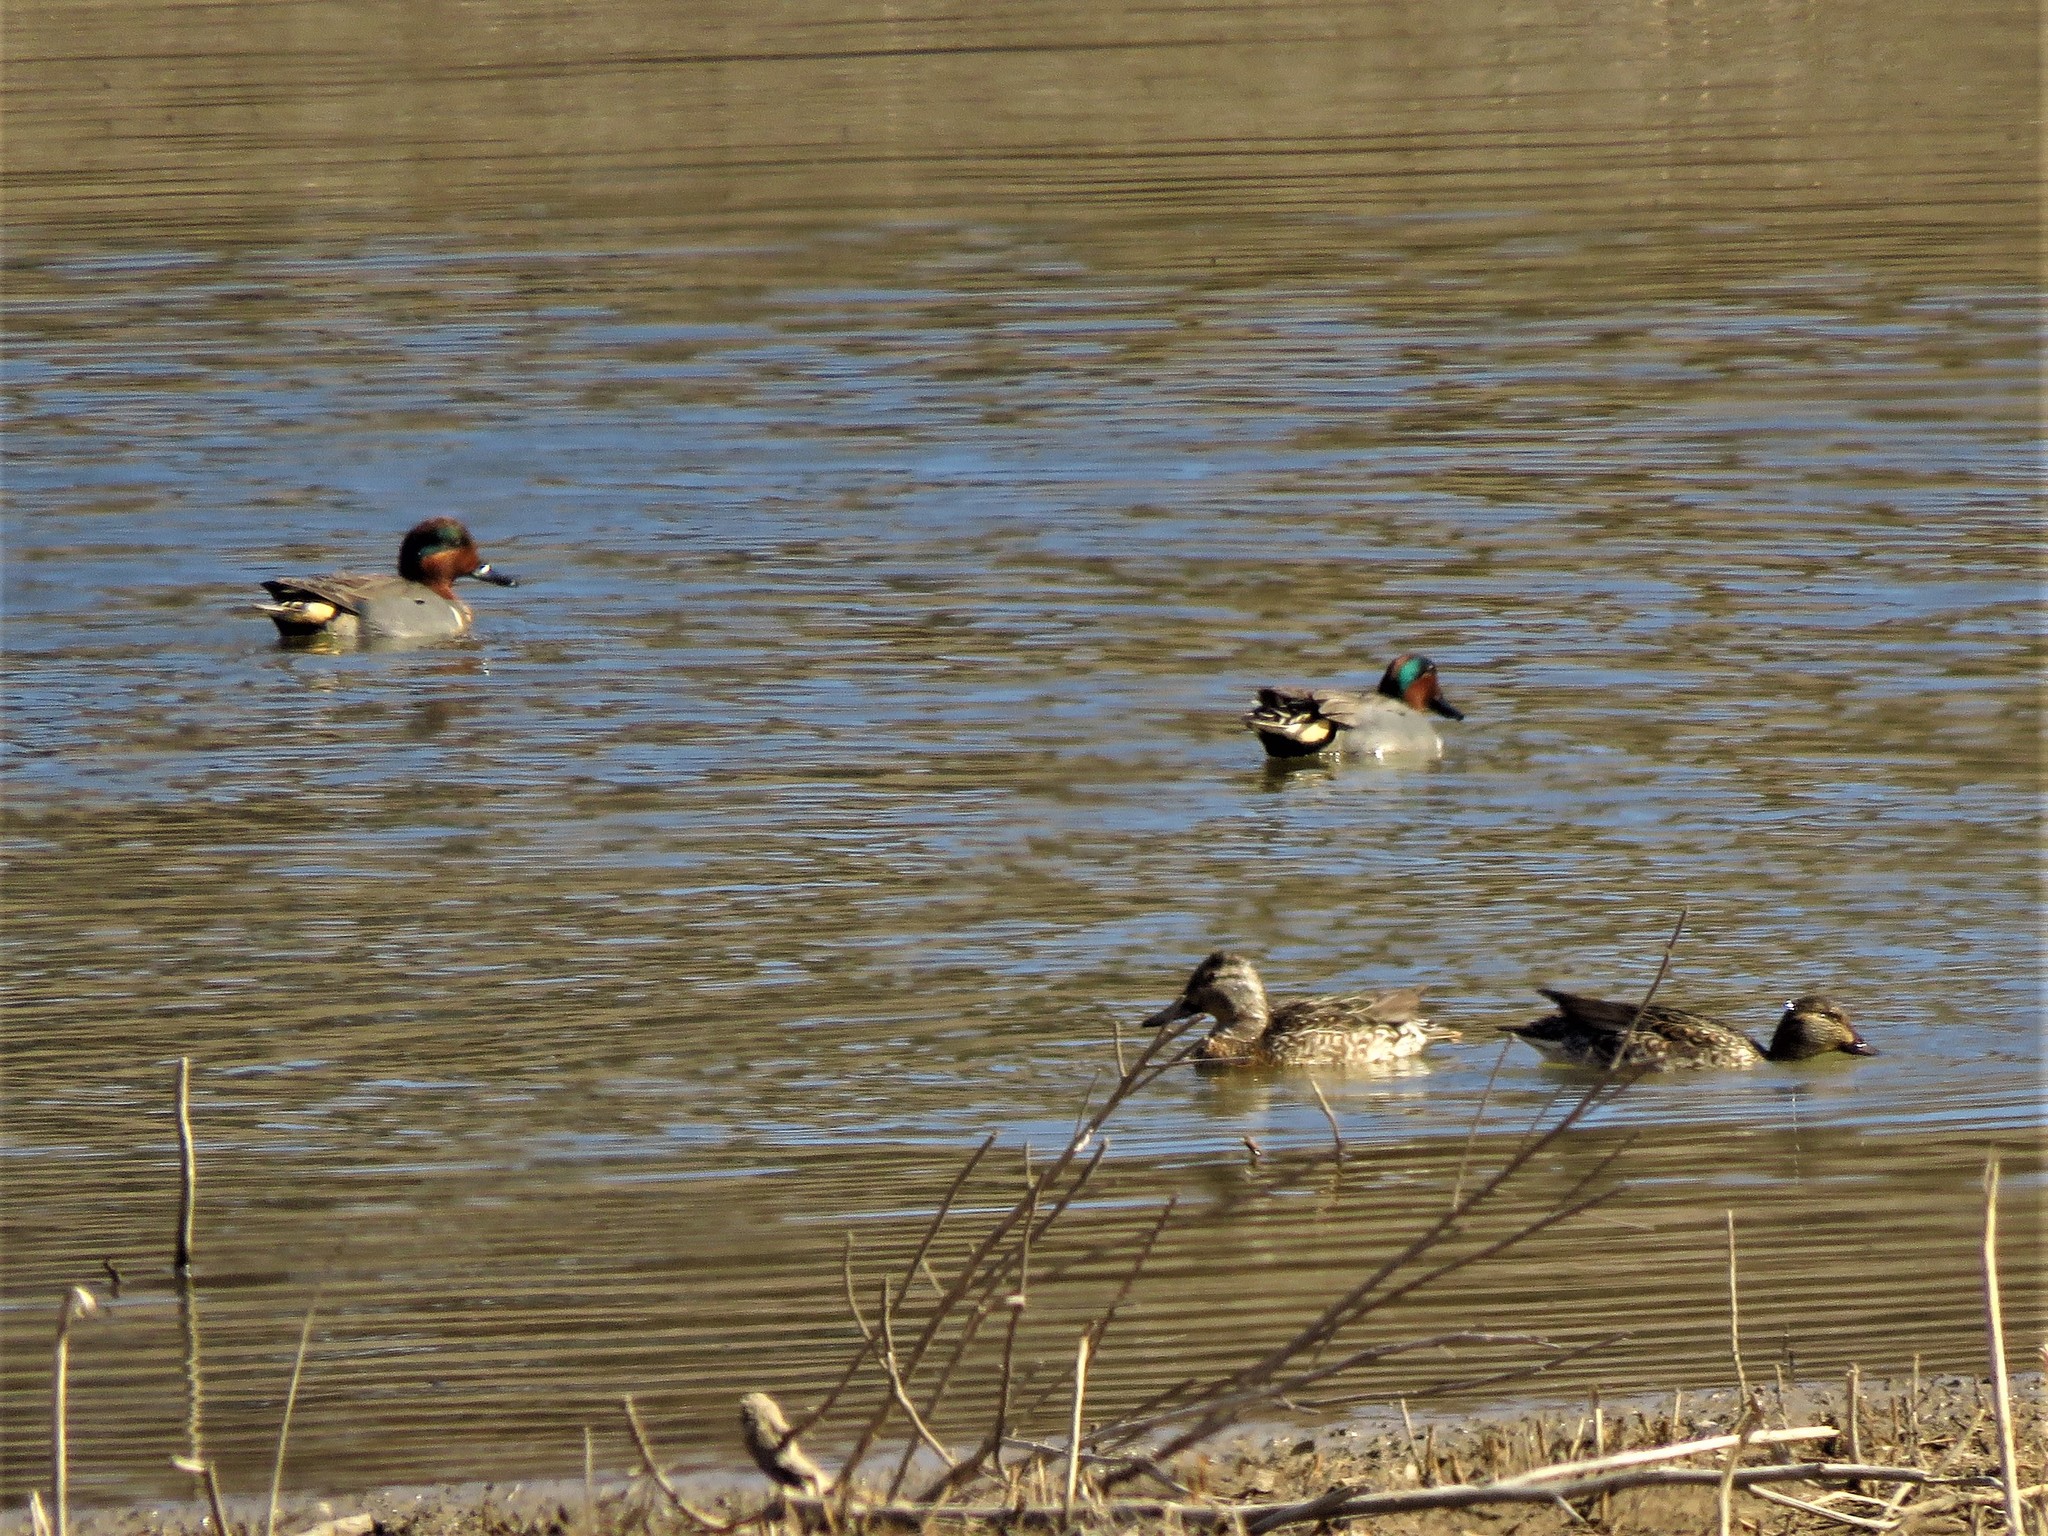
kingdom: Animalia
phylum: Chordata
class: Aves
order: Anseriformes
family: Anatidae
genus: Anas
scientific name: Anas crecca
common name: Eurasian teal
